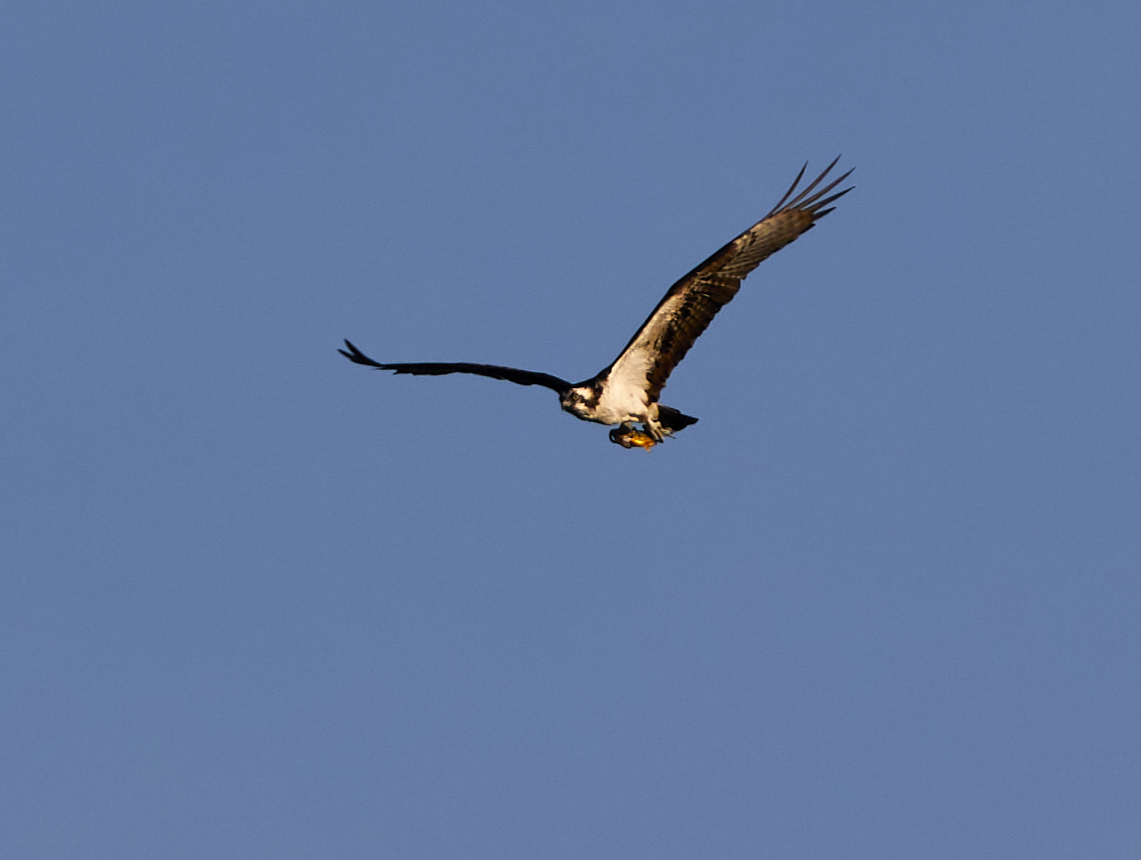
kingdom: Animalia
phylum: Chordata
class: Aves
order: Accipitriformes
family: Pandionidae
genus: Pandion
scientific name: Pandion haliaetus
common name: Osprey
